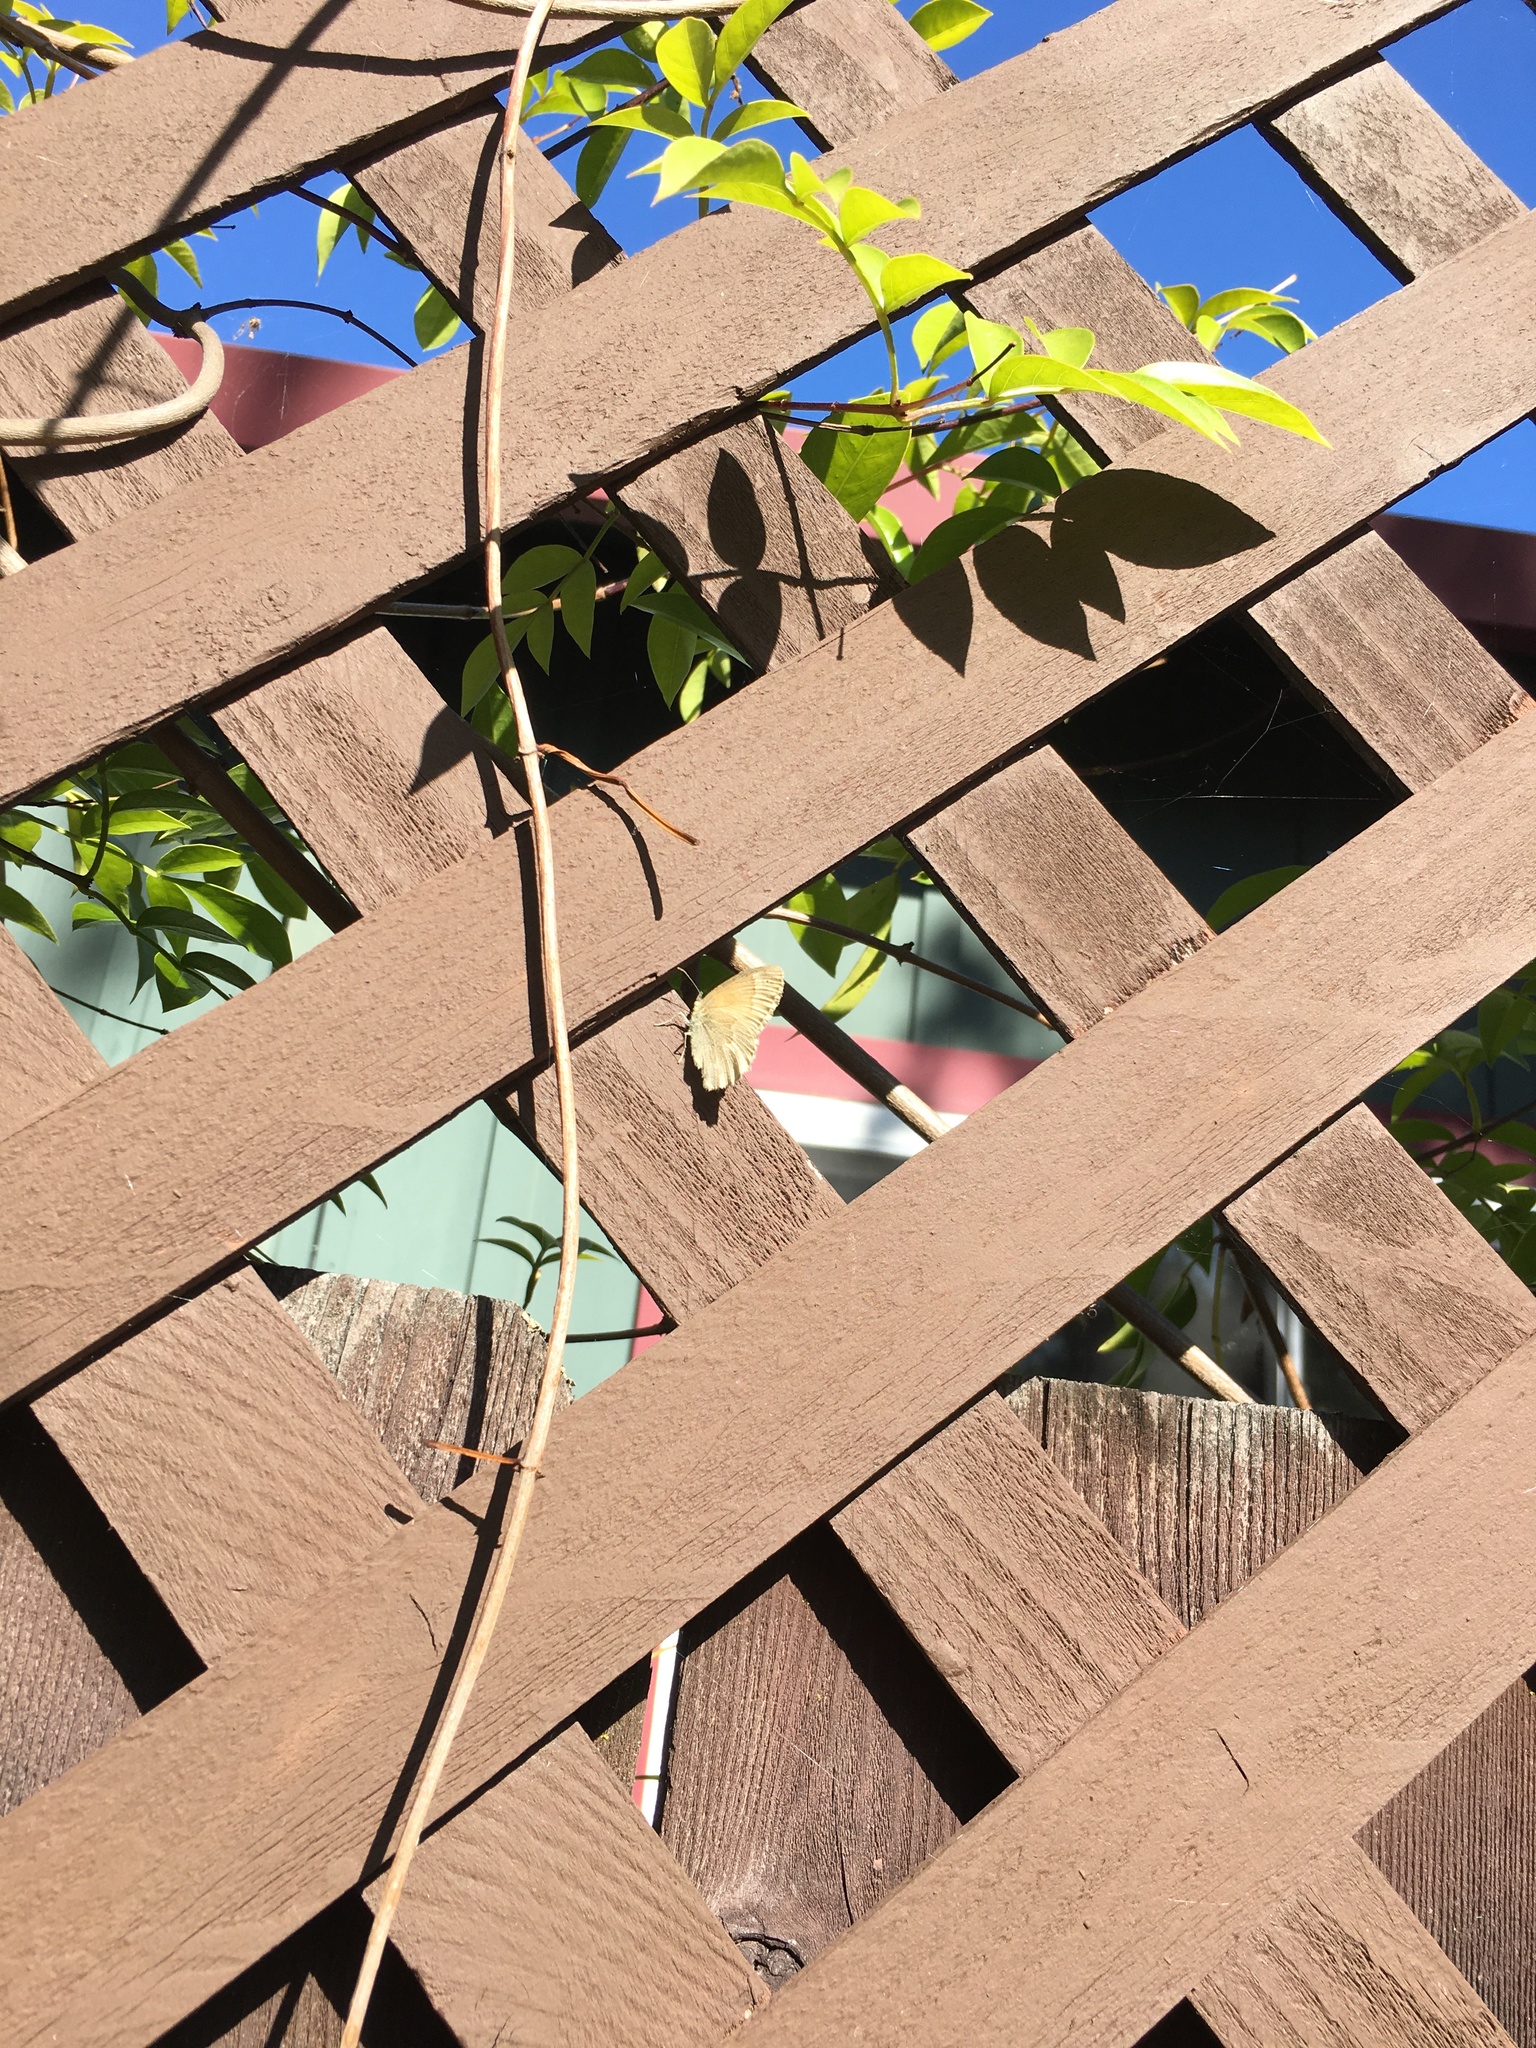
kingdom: Animalia
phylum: Arthropoda
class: Insecta
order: Lepidoptera
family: Nymphalidae
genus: Coenonympha
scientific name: Coenonympha california
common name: Common ringlet
